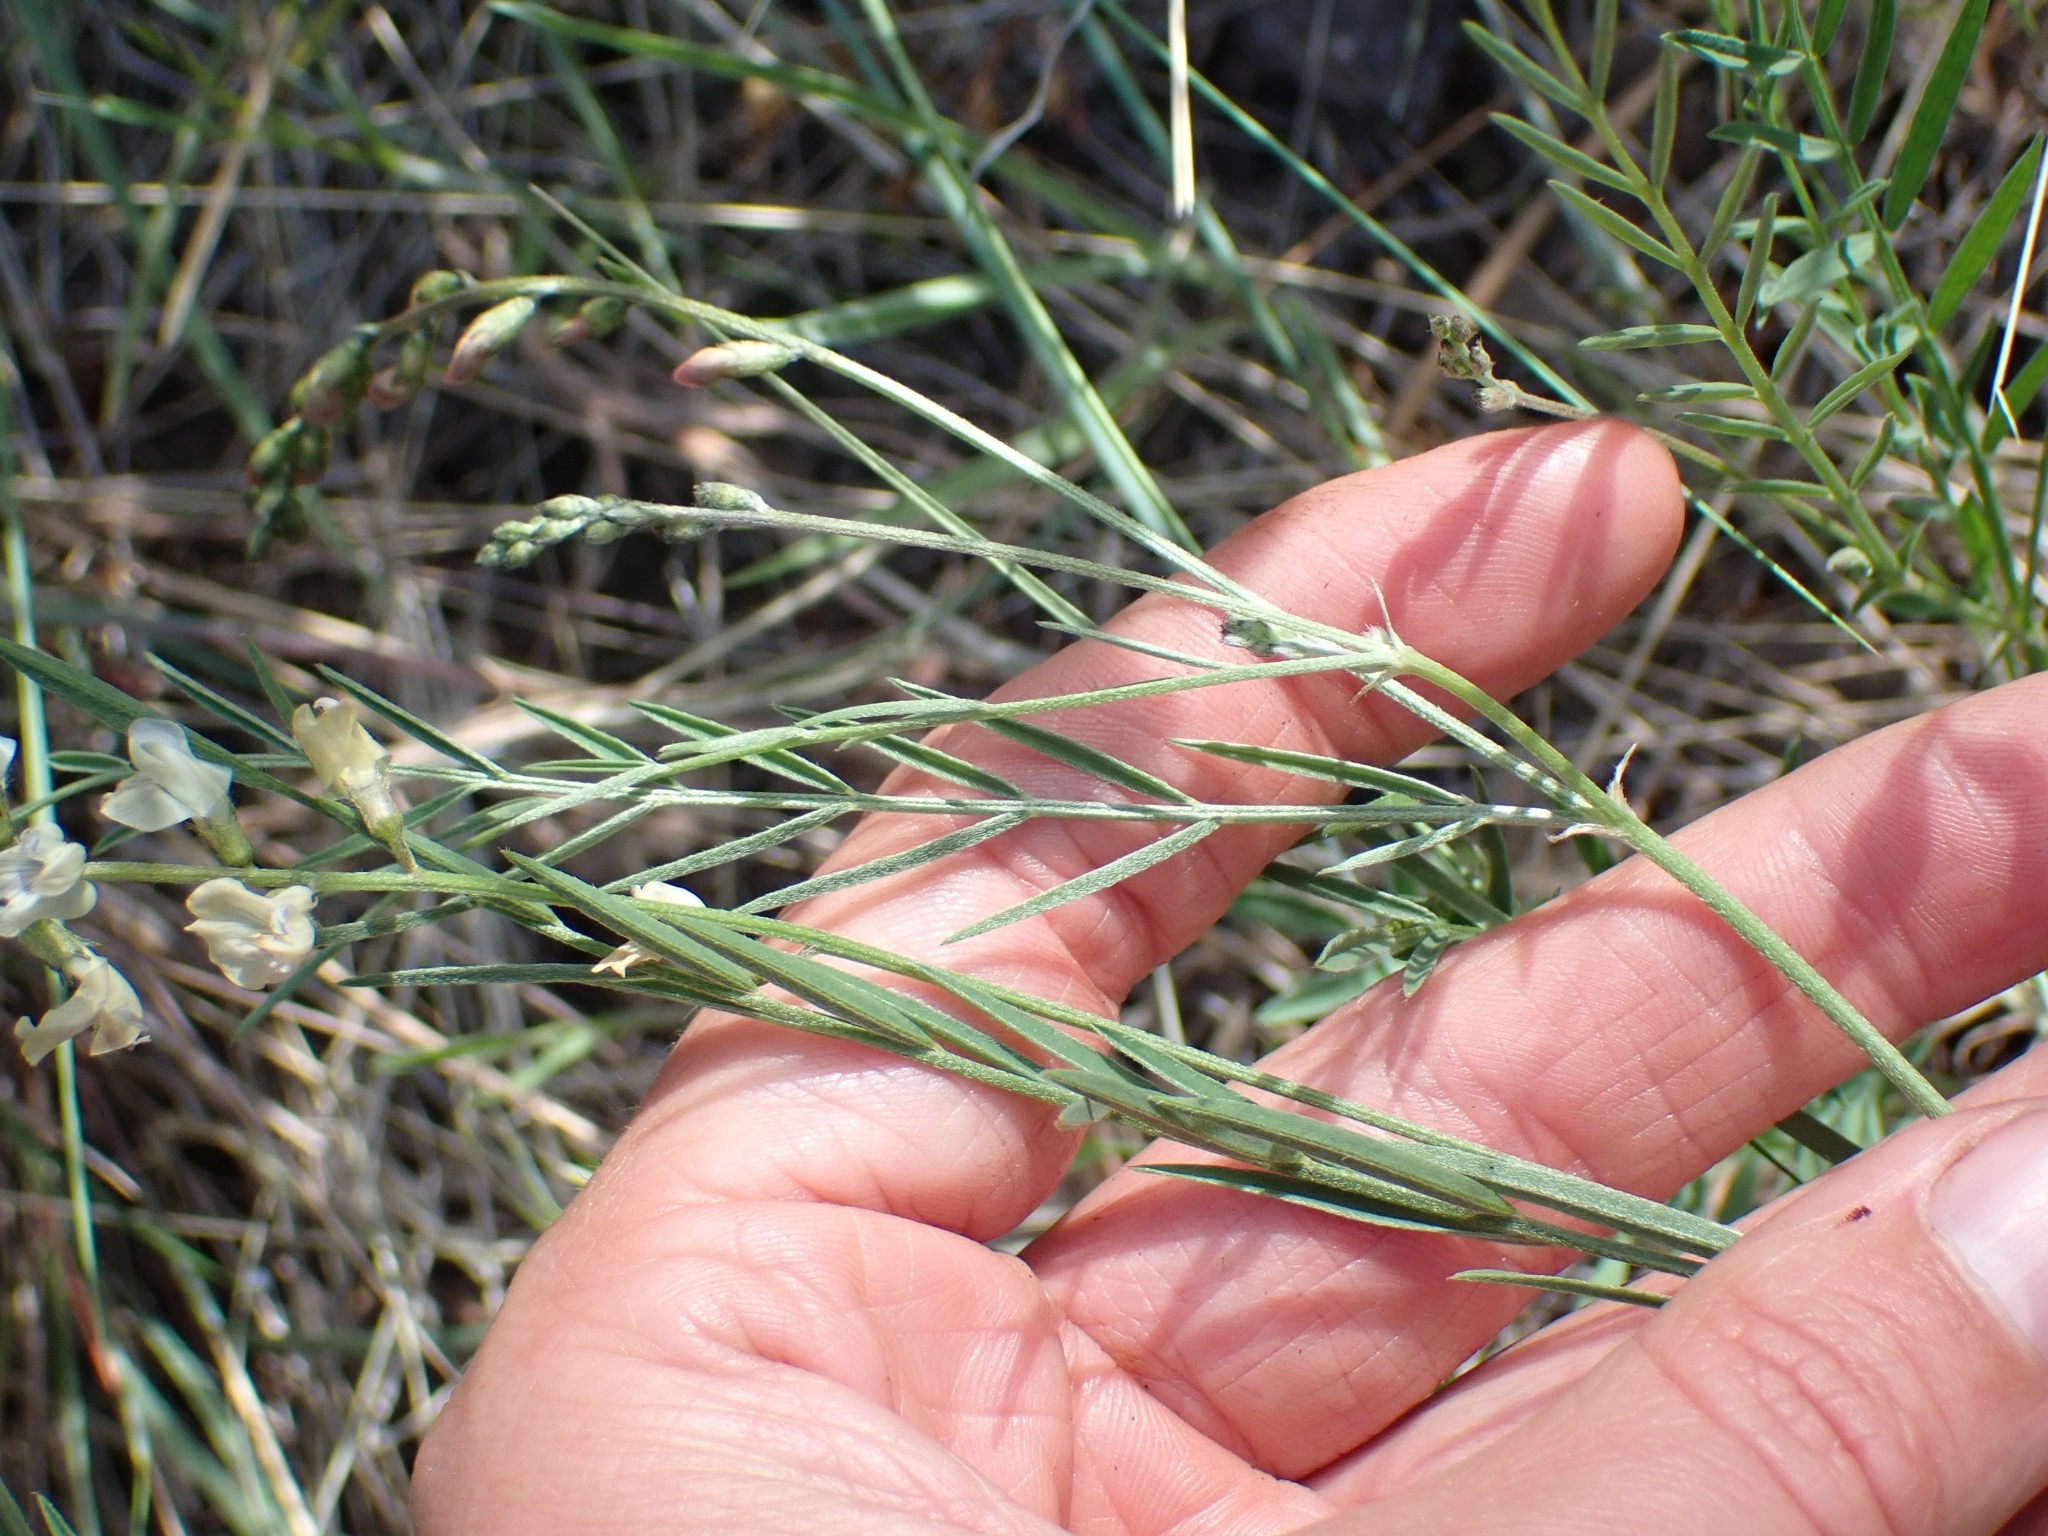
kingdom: Plantae
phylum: Tracheophyta
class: Magnoliopsida
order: Fabales
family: Fabaceae
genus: Astragalus
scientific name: Astragalus miser
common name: Timber milkvetch
